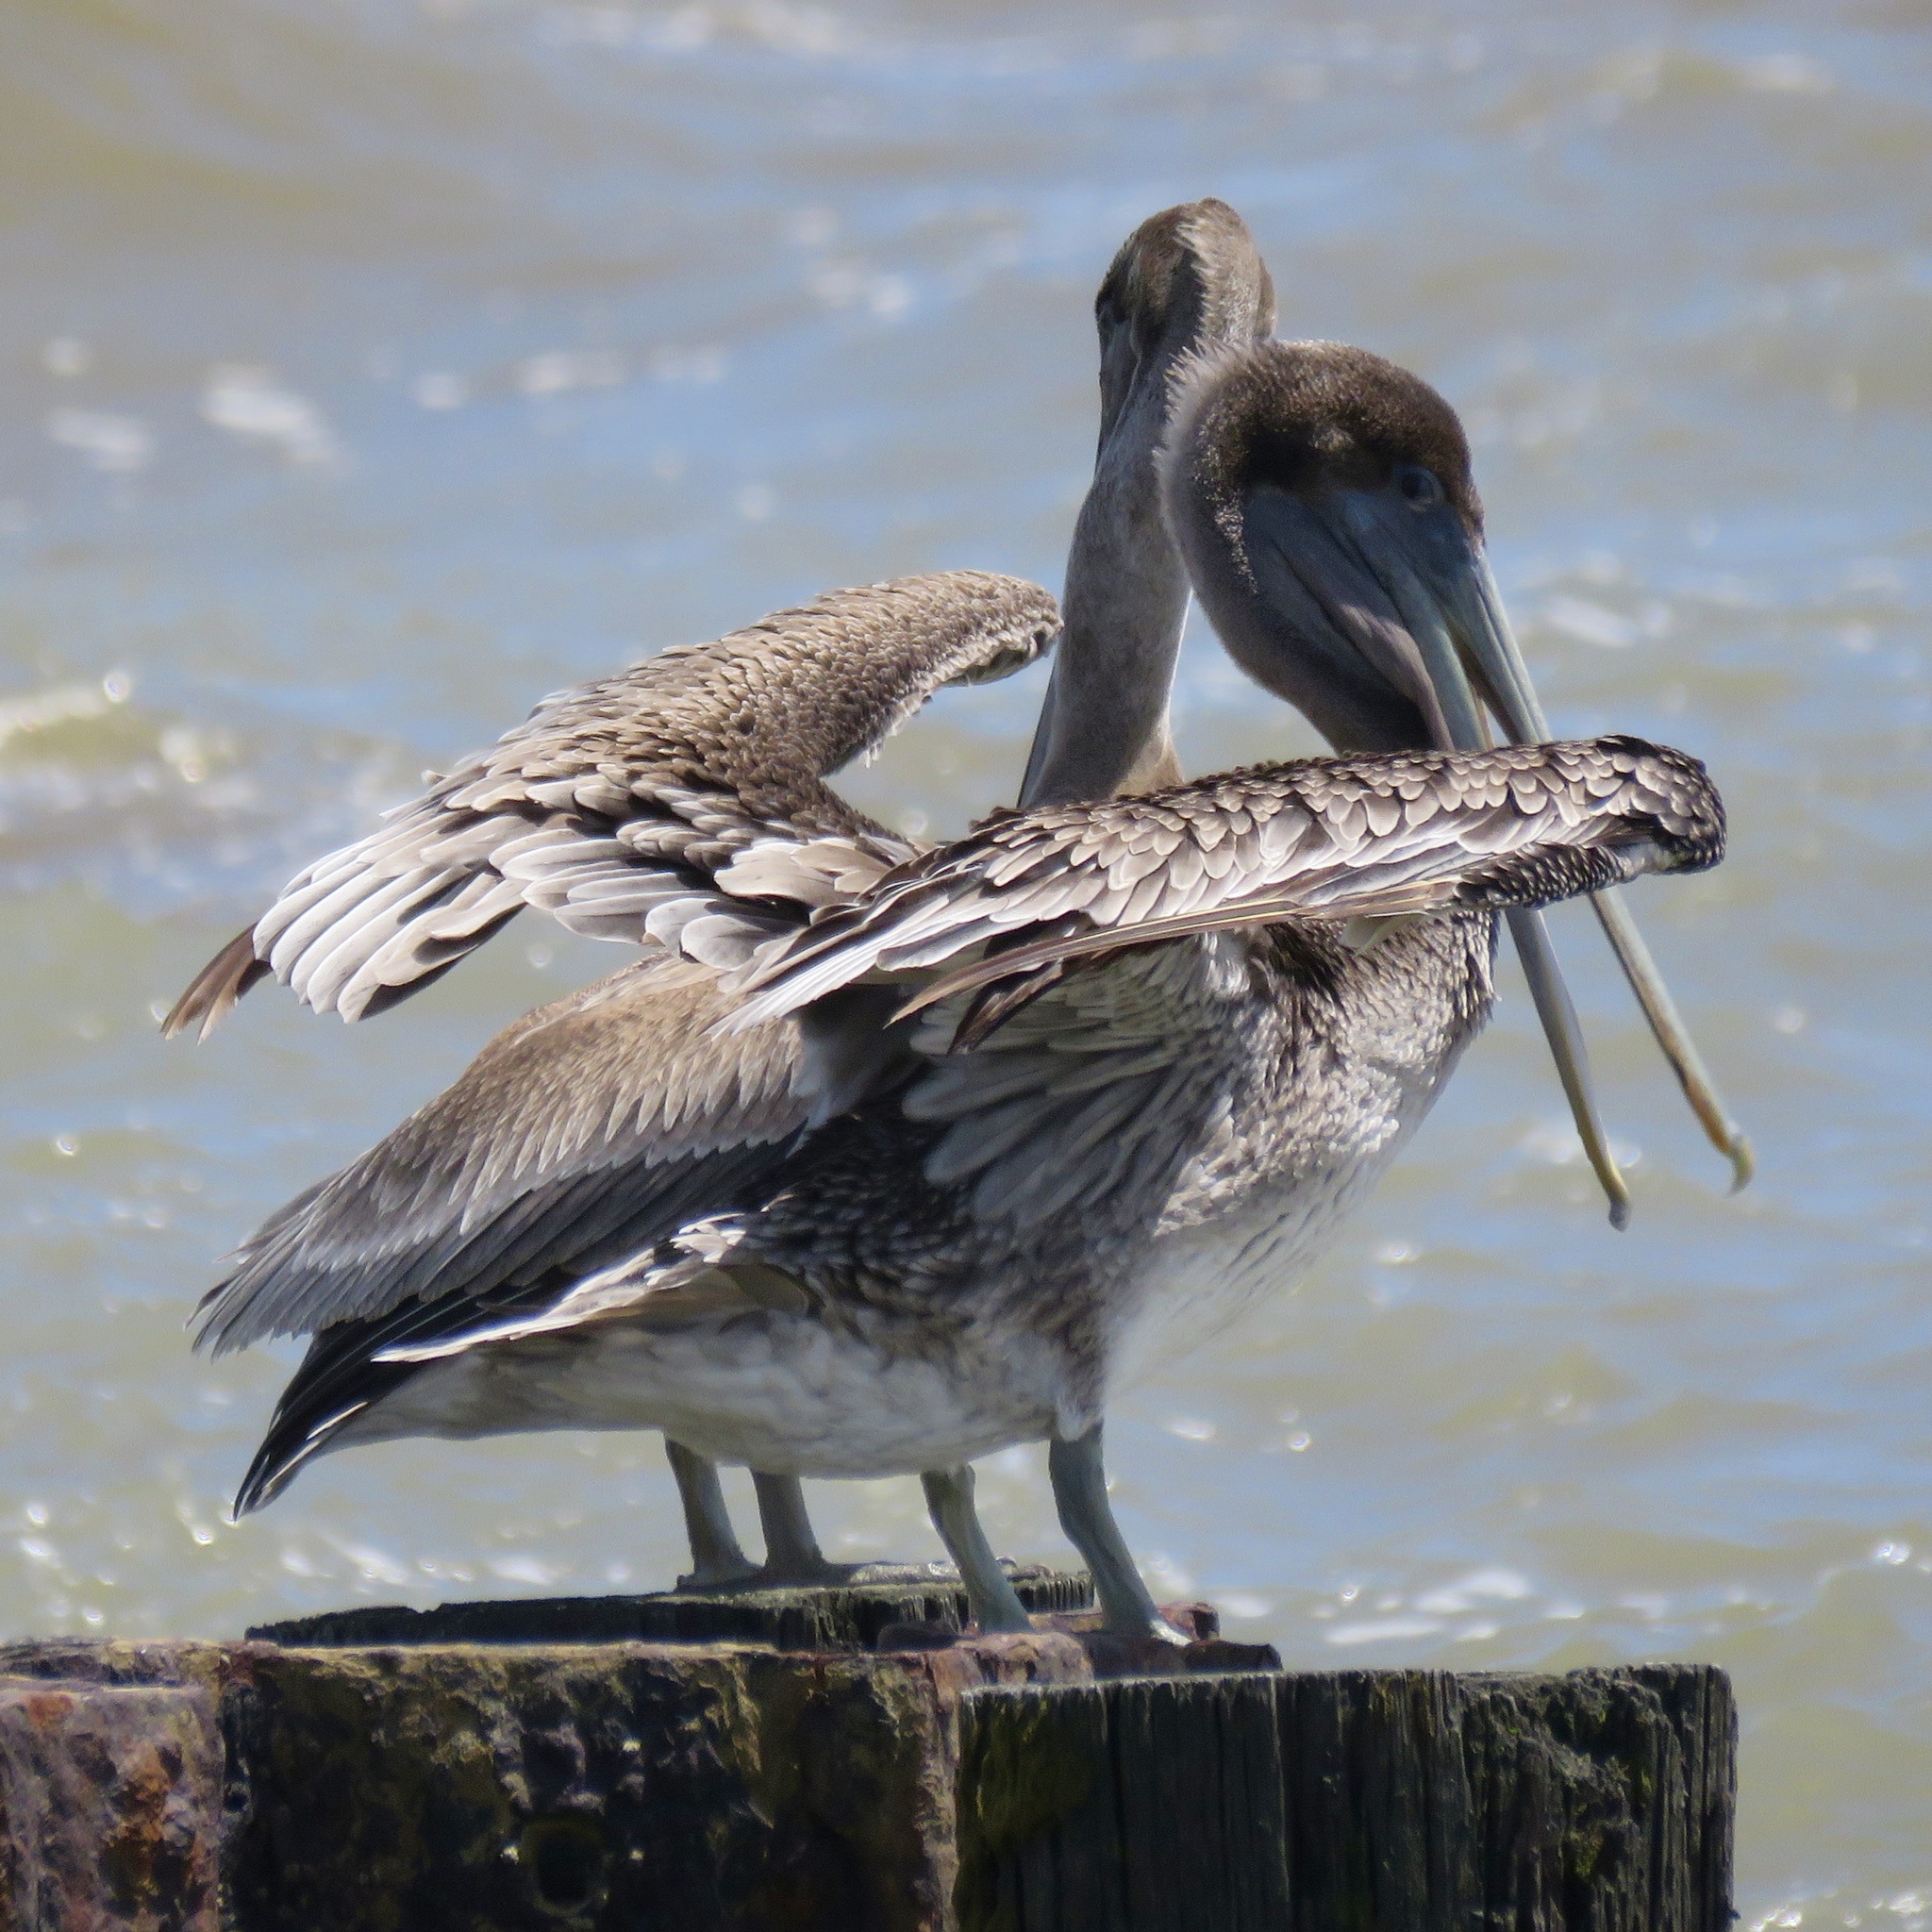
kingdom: Animalia
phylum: Chordata
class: Aves
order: Pelecaniformes
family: Pelecanidae
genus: Pelecanus
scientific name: Pelecanus occidentalis
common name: Brown pelican
